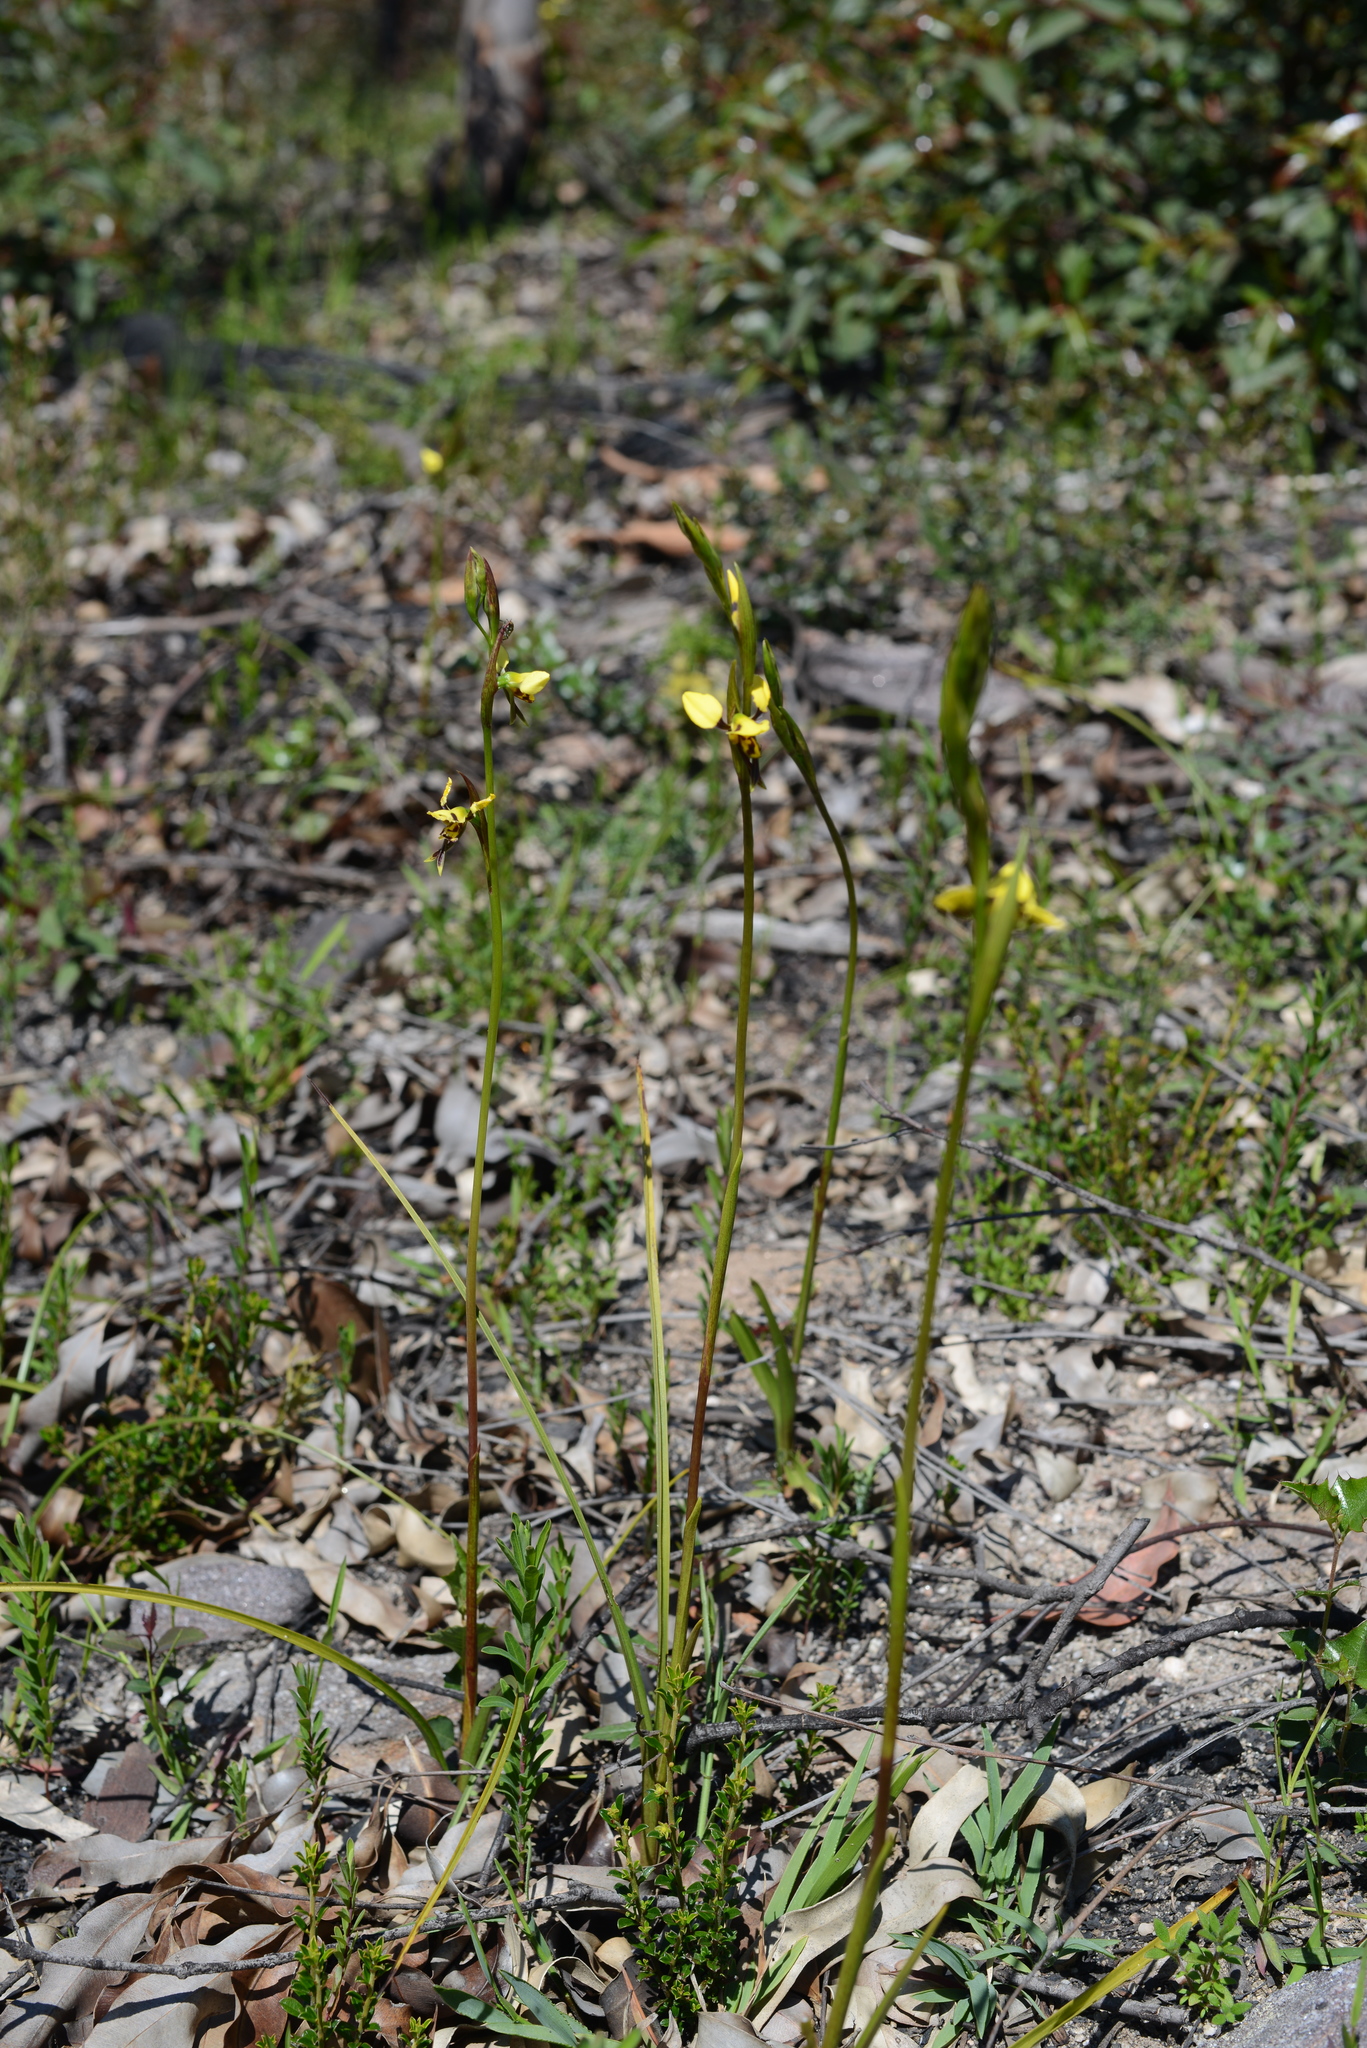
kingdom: Plantae
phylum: Tracheophyta
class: Liliopsida
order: Asparagales
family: Orchidaceae
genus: Diuris
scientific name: Diuris sulphurea
